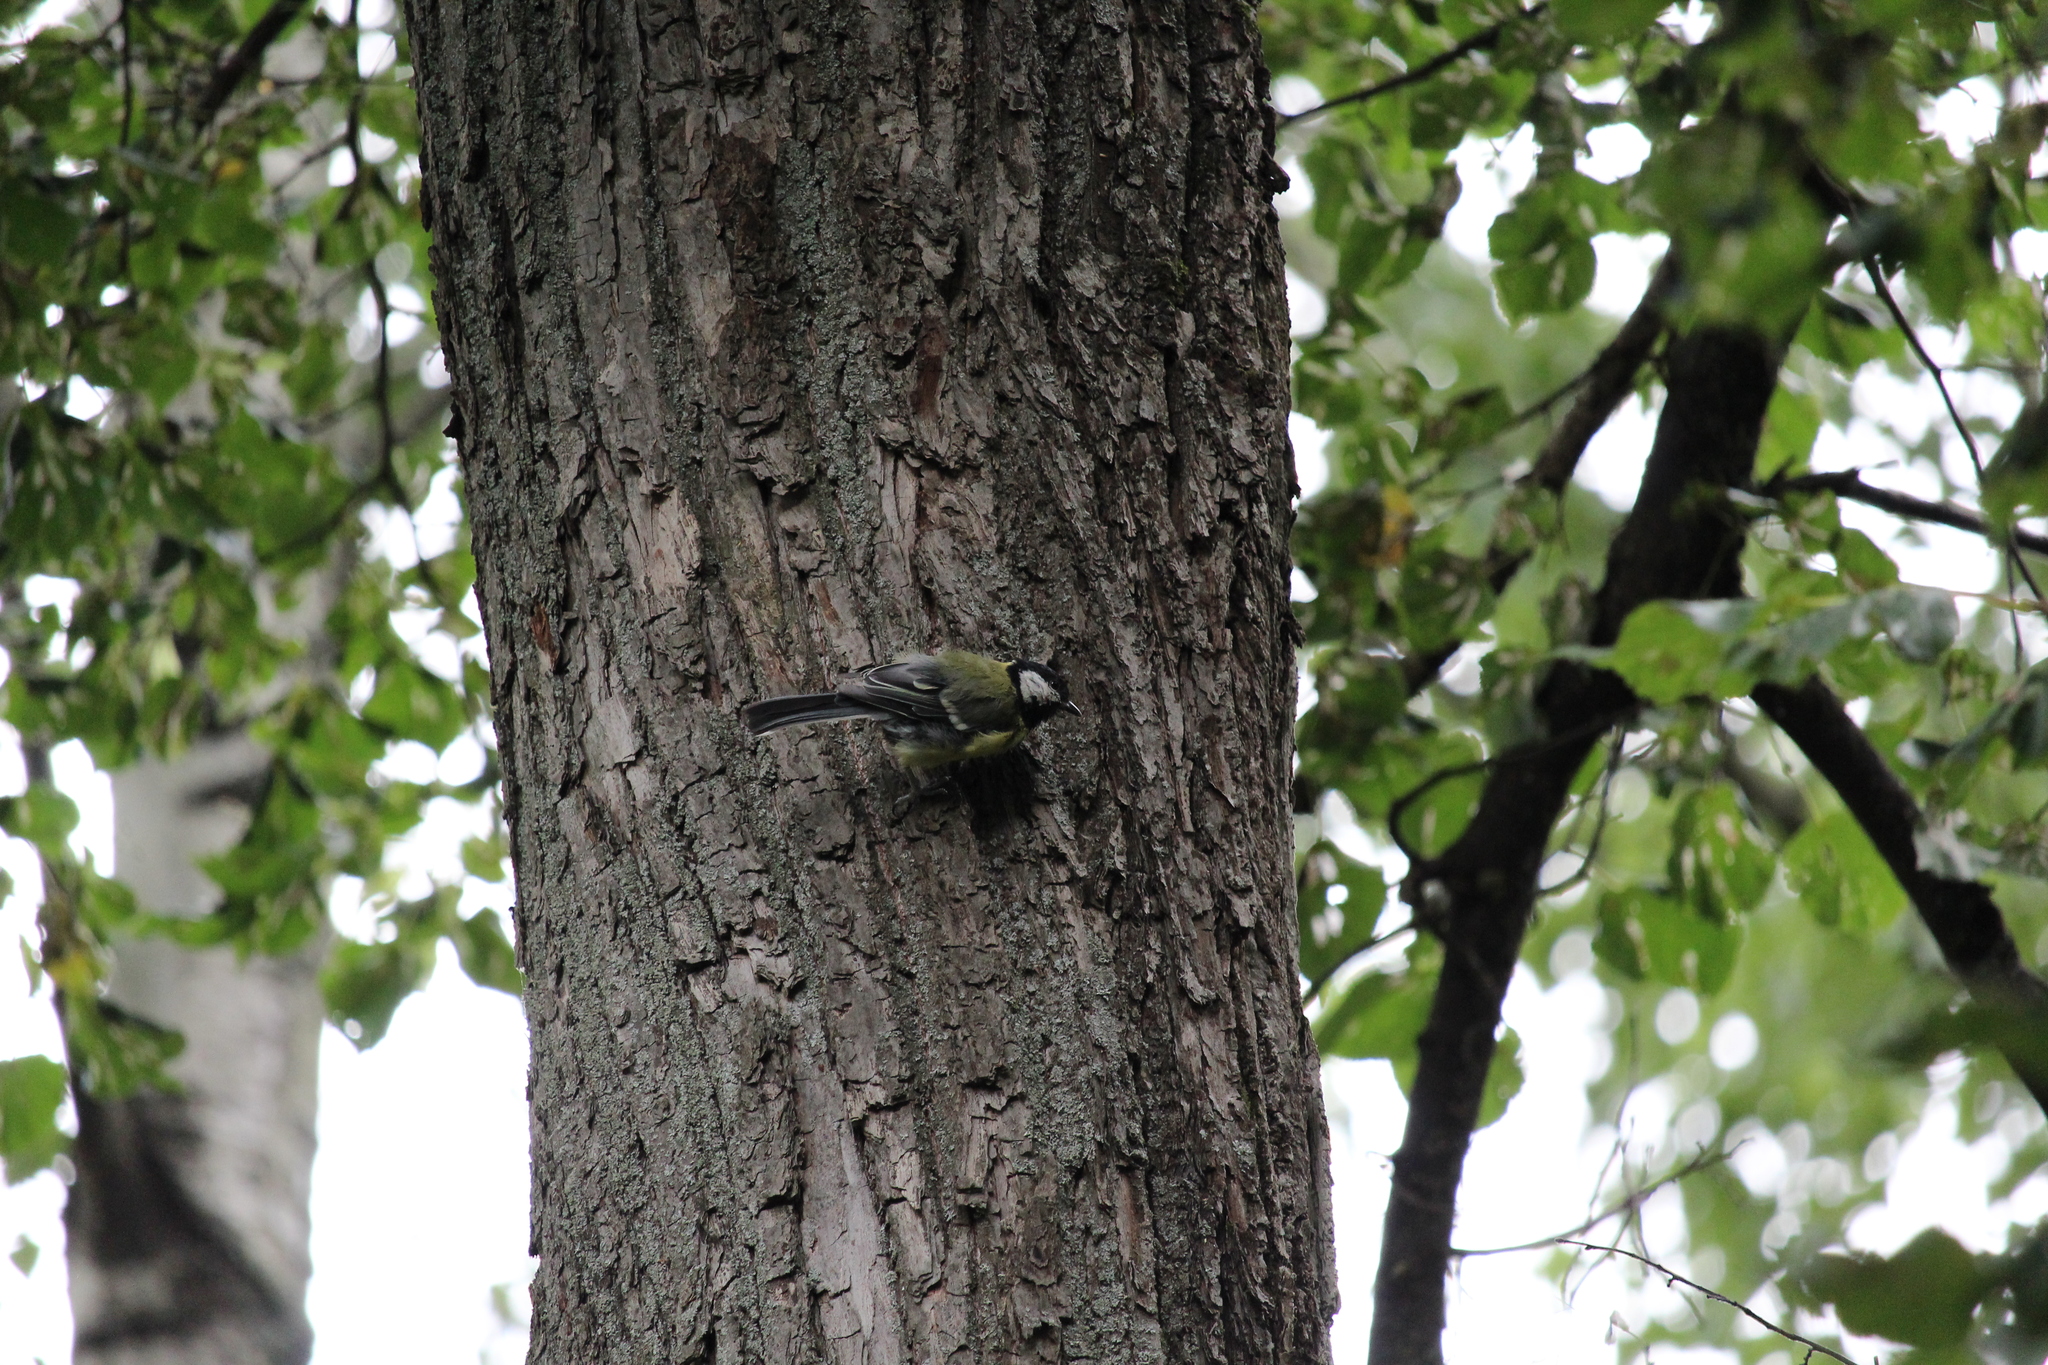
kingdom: Animalia
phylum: Chordata
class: Aves
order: Passeriformes
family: Paridae
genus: Parus
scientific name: Parus major
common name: Great tit
